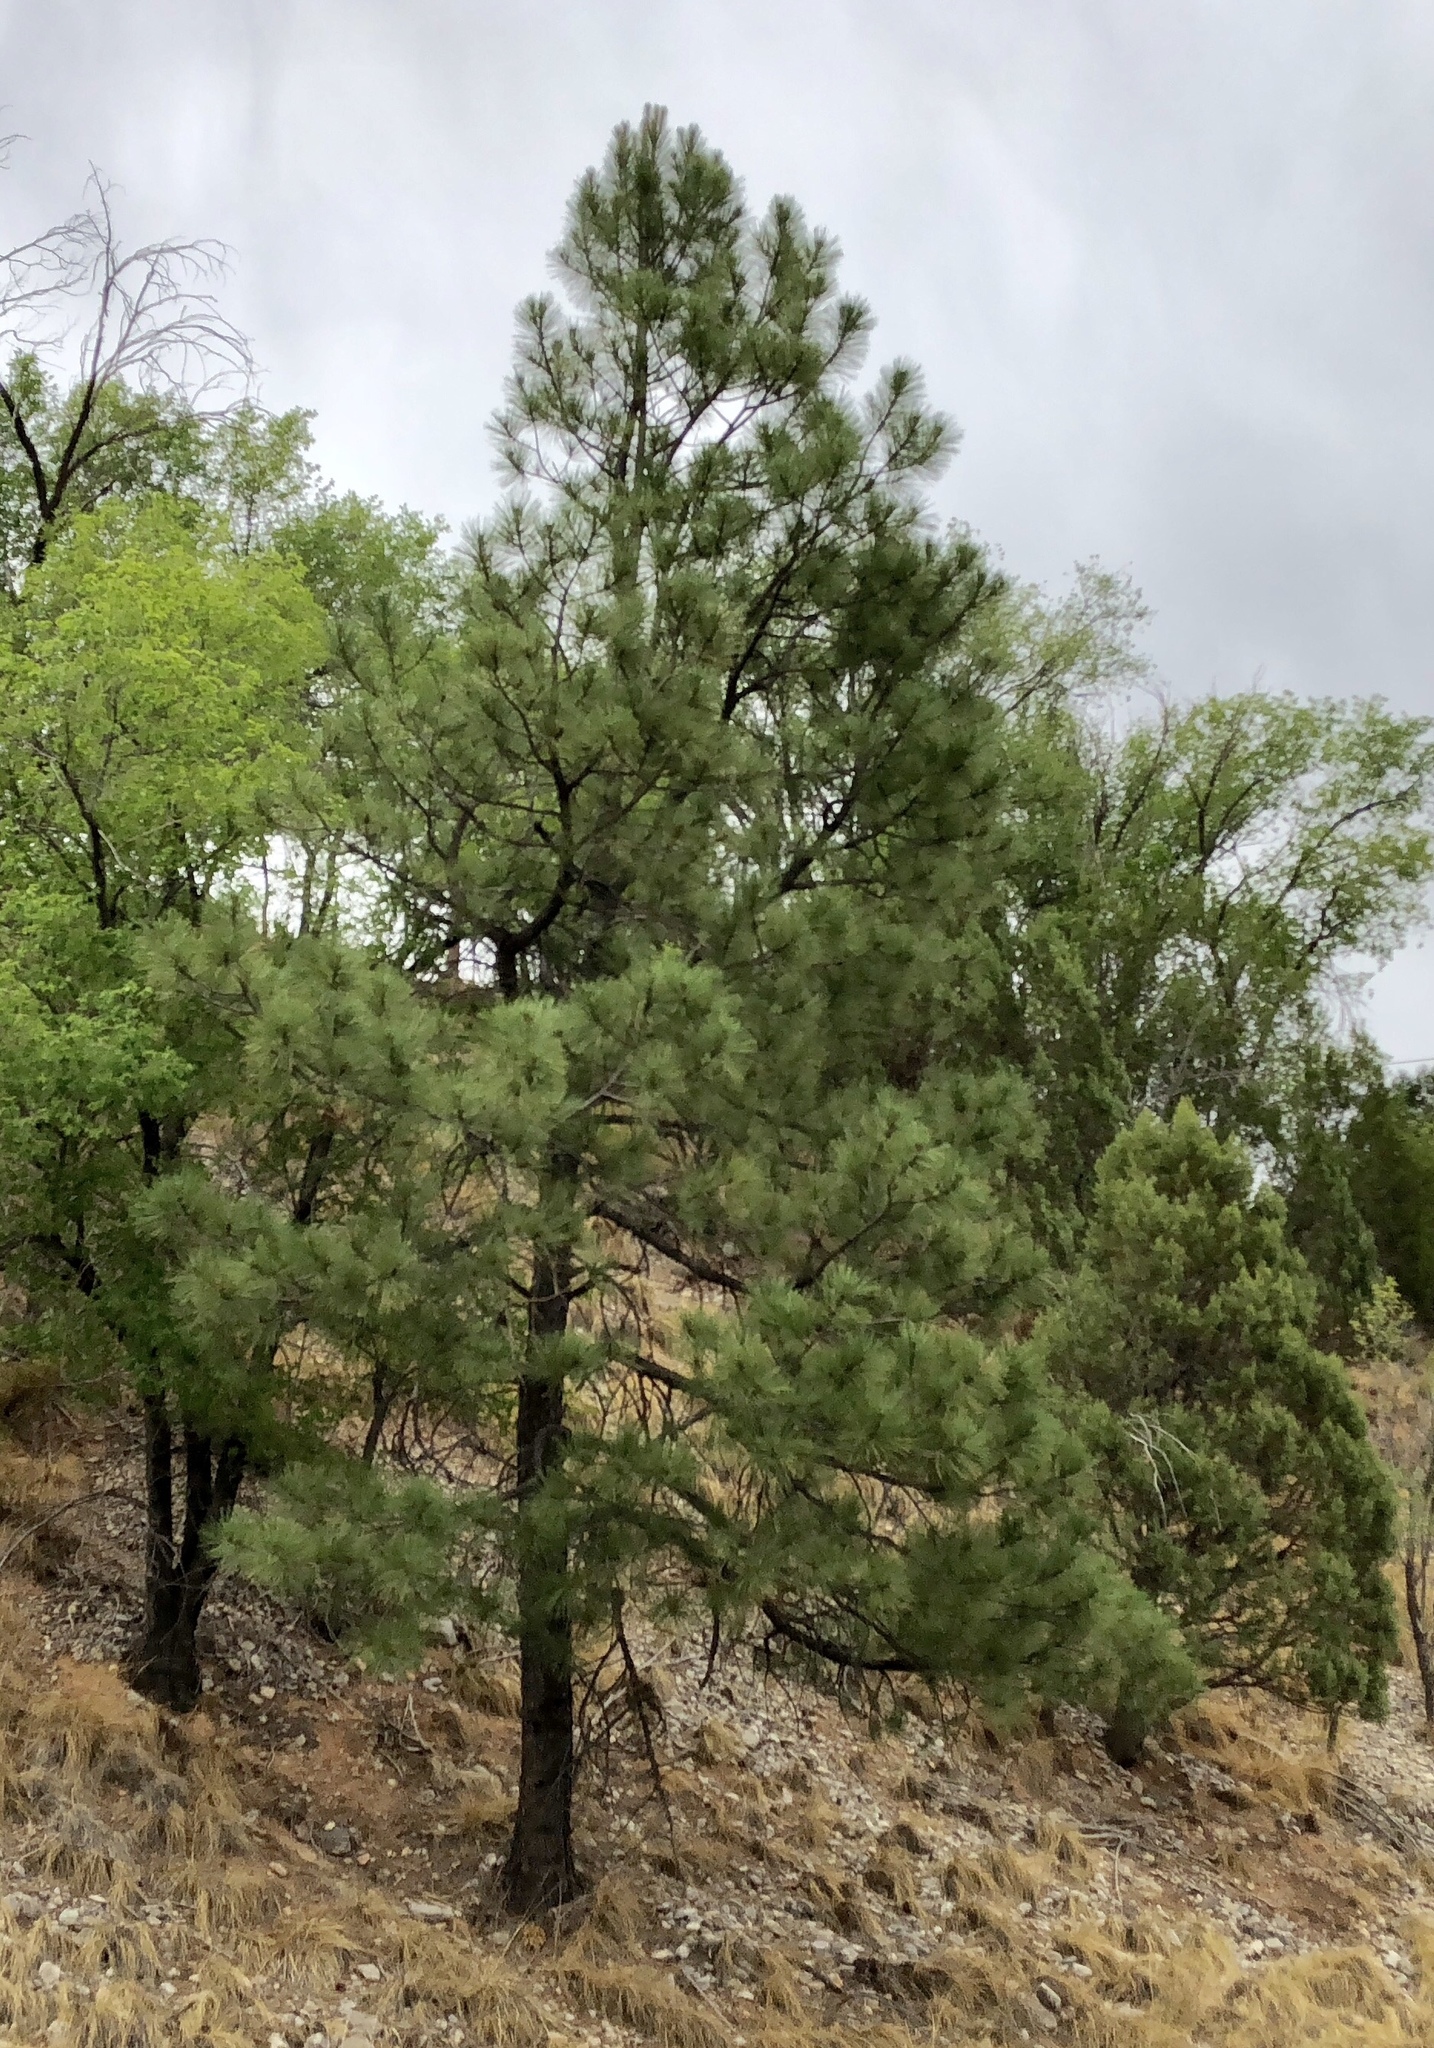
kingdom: Plantae
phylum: Tracheophyta
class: Pinopsida
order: Pinales
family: Pinaceae
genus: Pinus
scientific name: Pinus ponderosa
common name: Western yellow-pine
